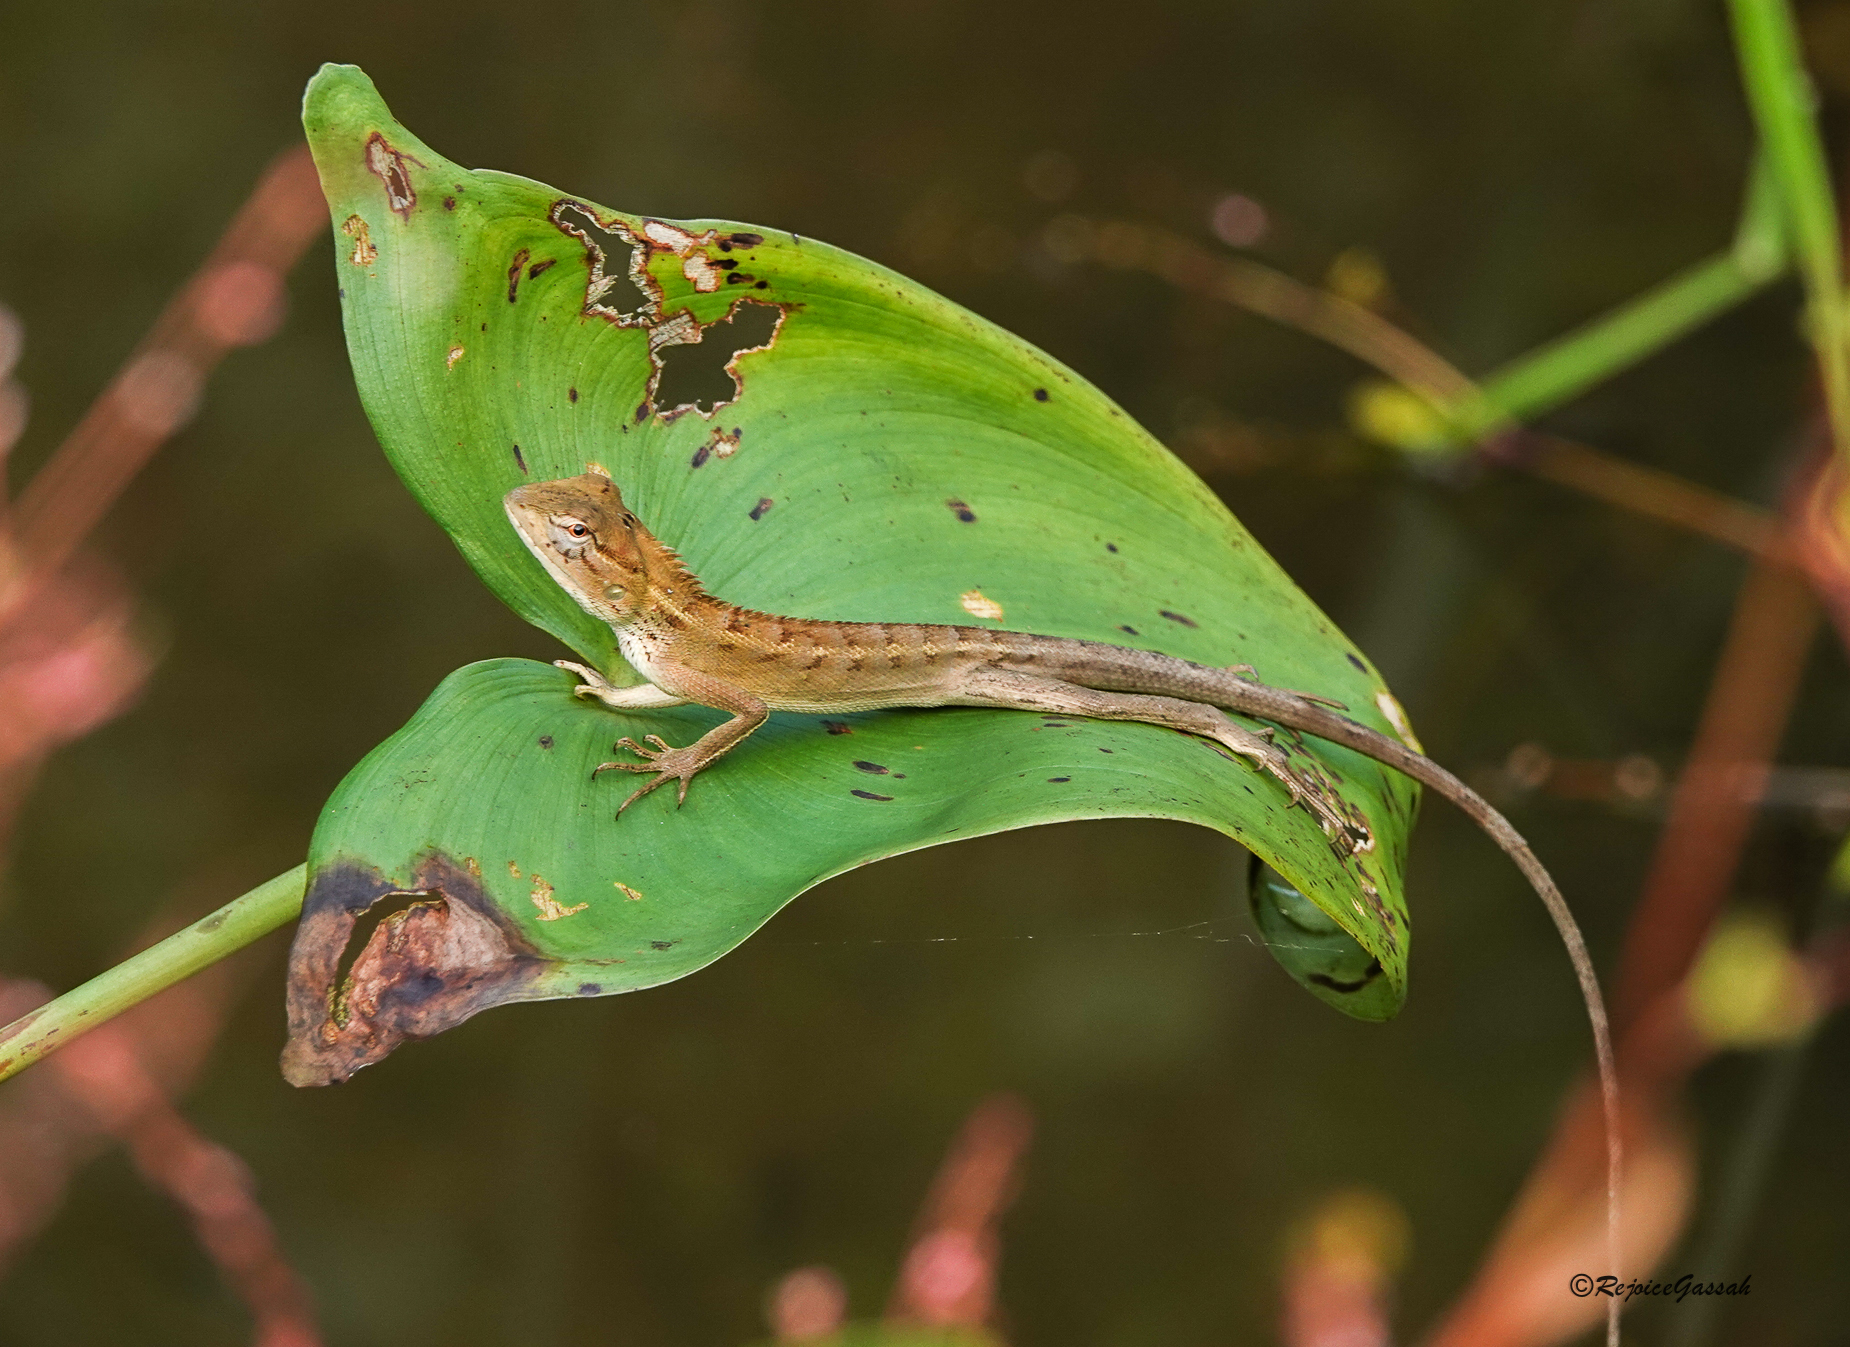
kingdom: Animalia
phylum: Chordata
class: Squamata
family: Agamidae
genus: Calotes
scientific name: Calotes versicolor
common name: Oriental garden lizard
